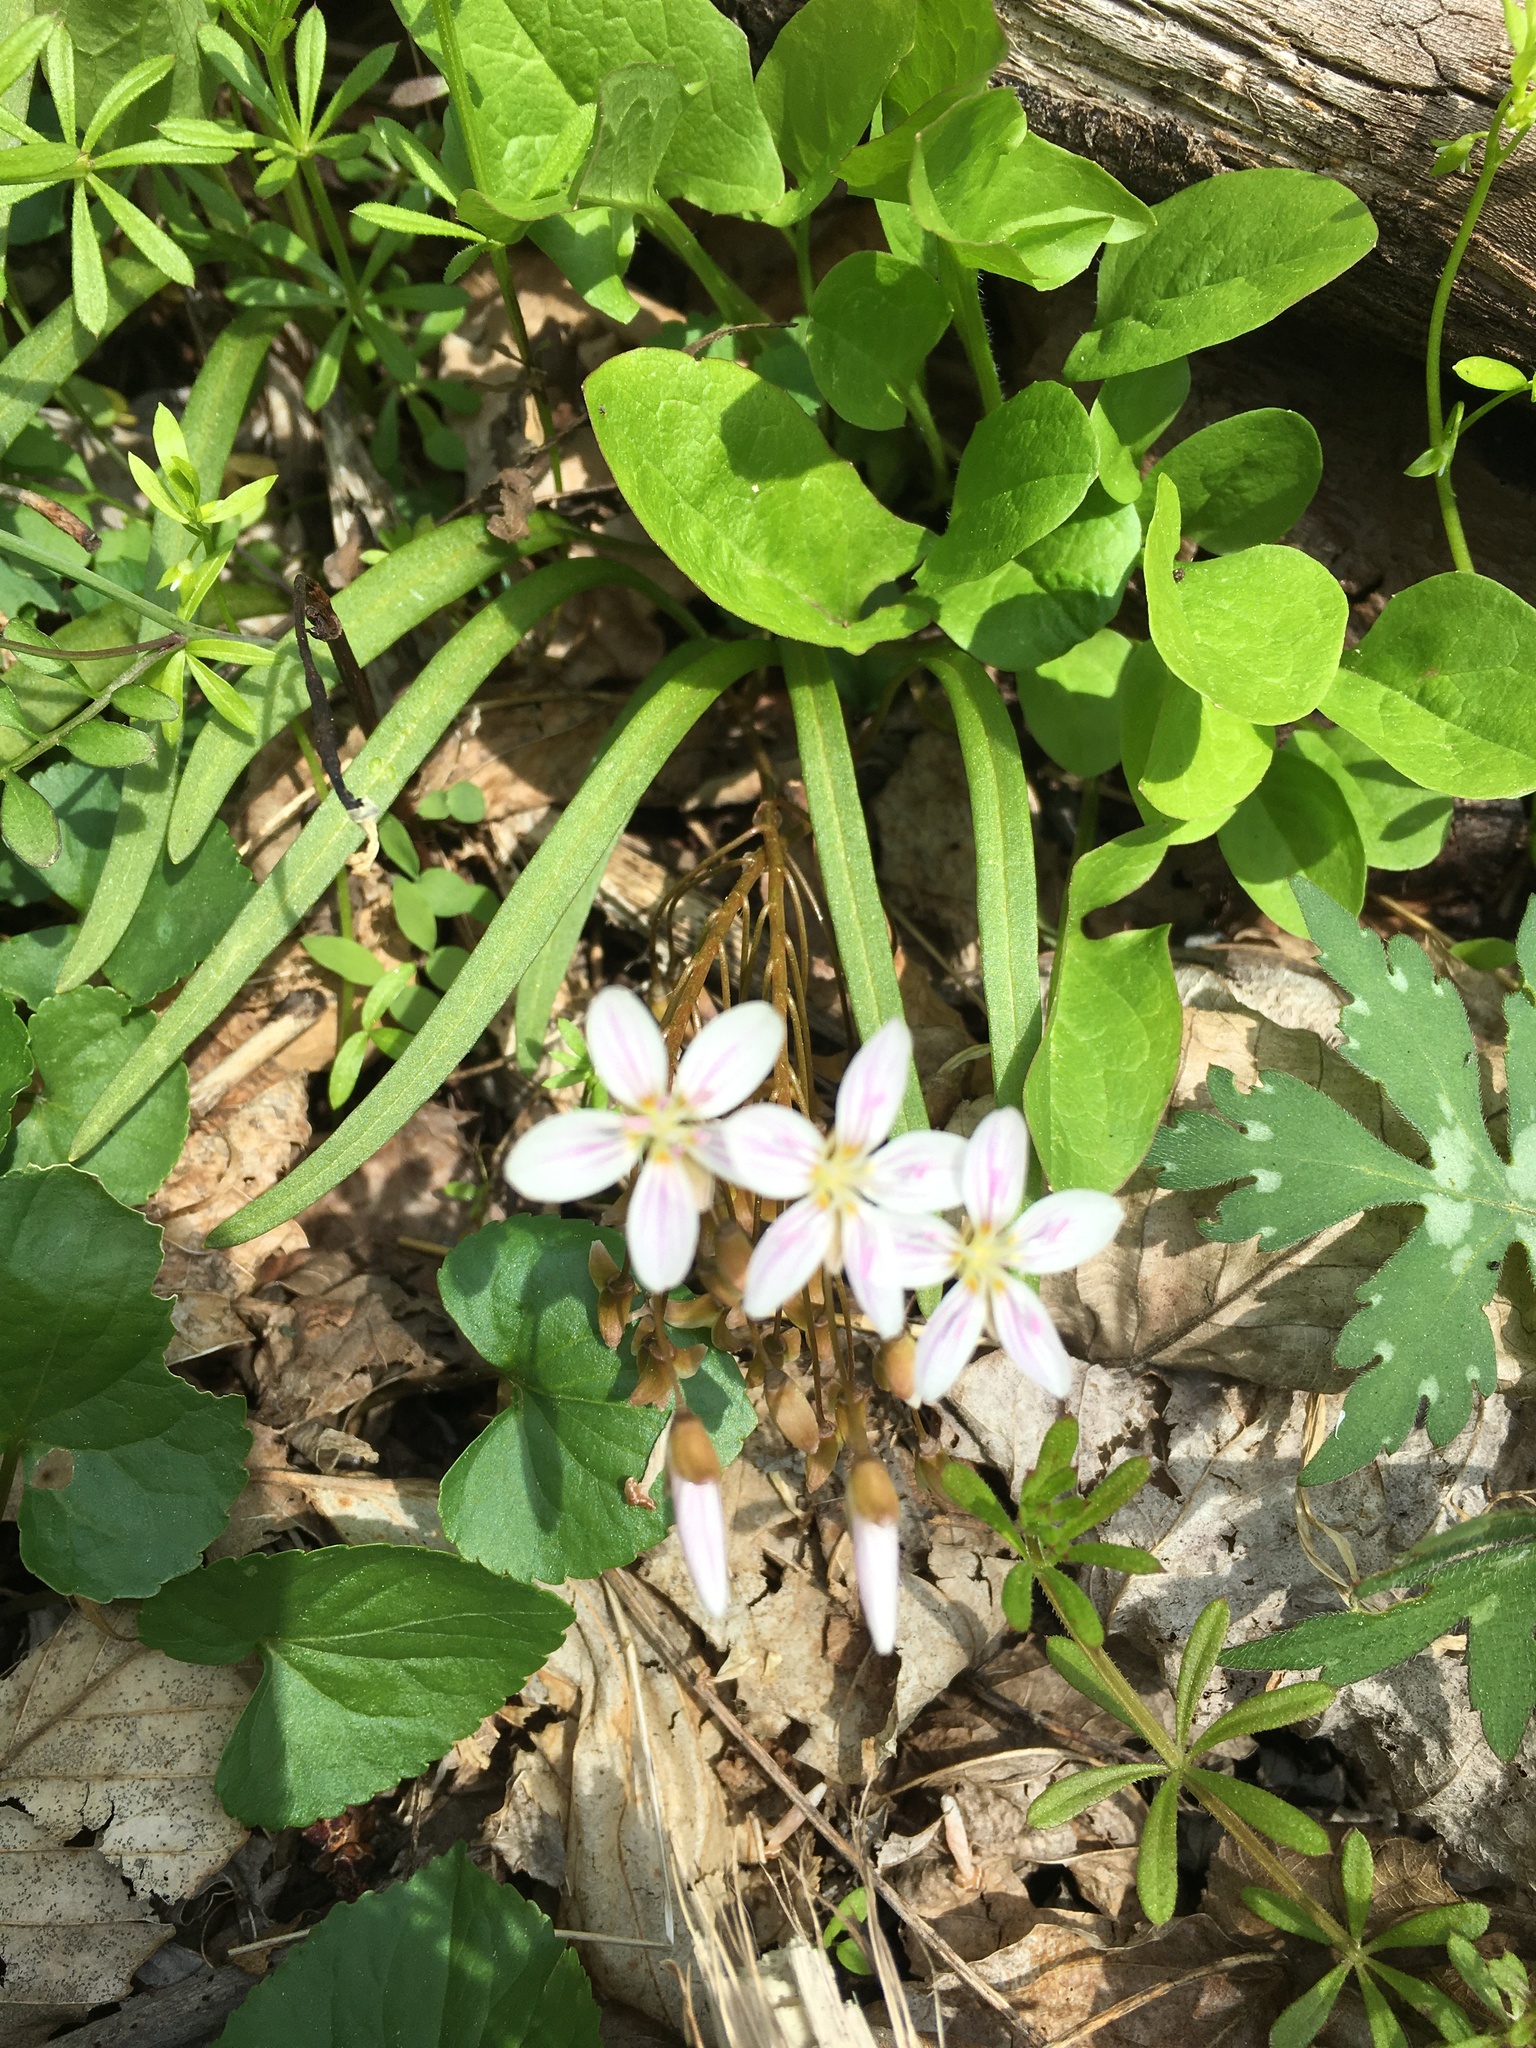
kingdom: Plantae
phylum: Tracheophyta
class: Magnoliopsida
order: Caryophyllales
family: Montiaceae
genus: Claytonia
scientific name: Claytonia virginica
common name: Virginia springbeauty
